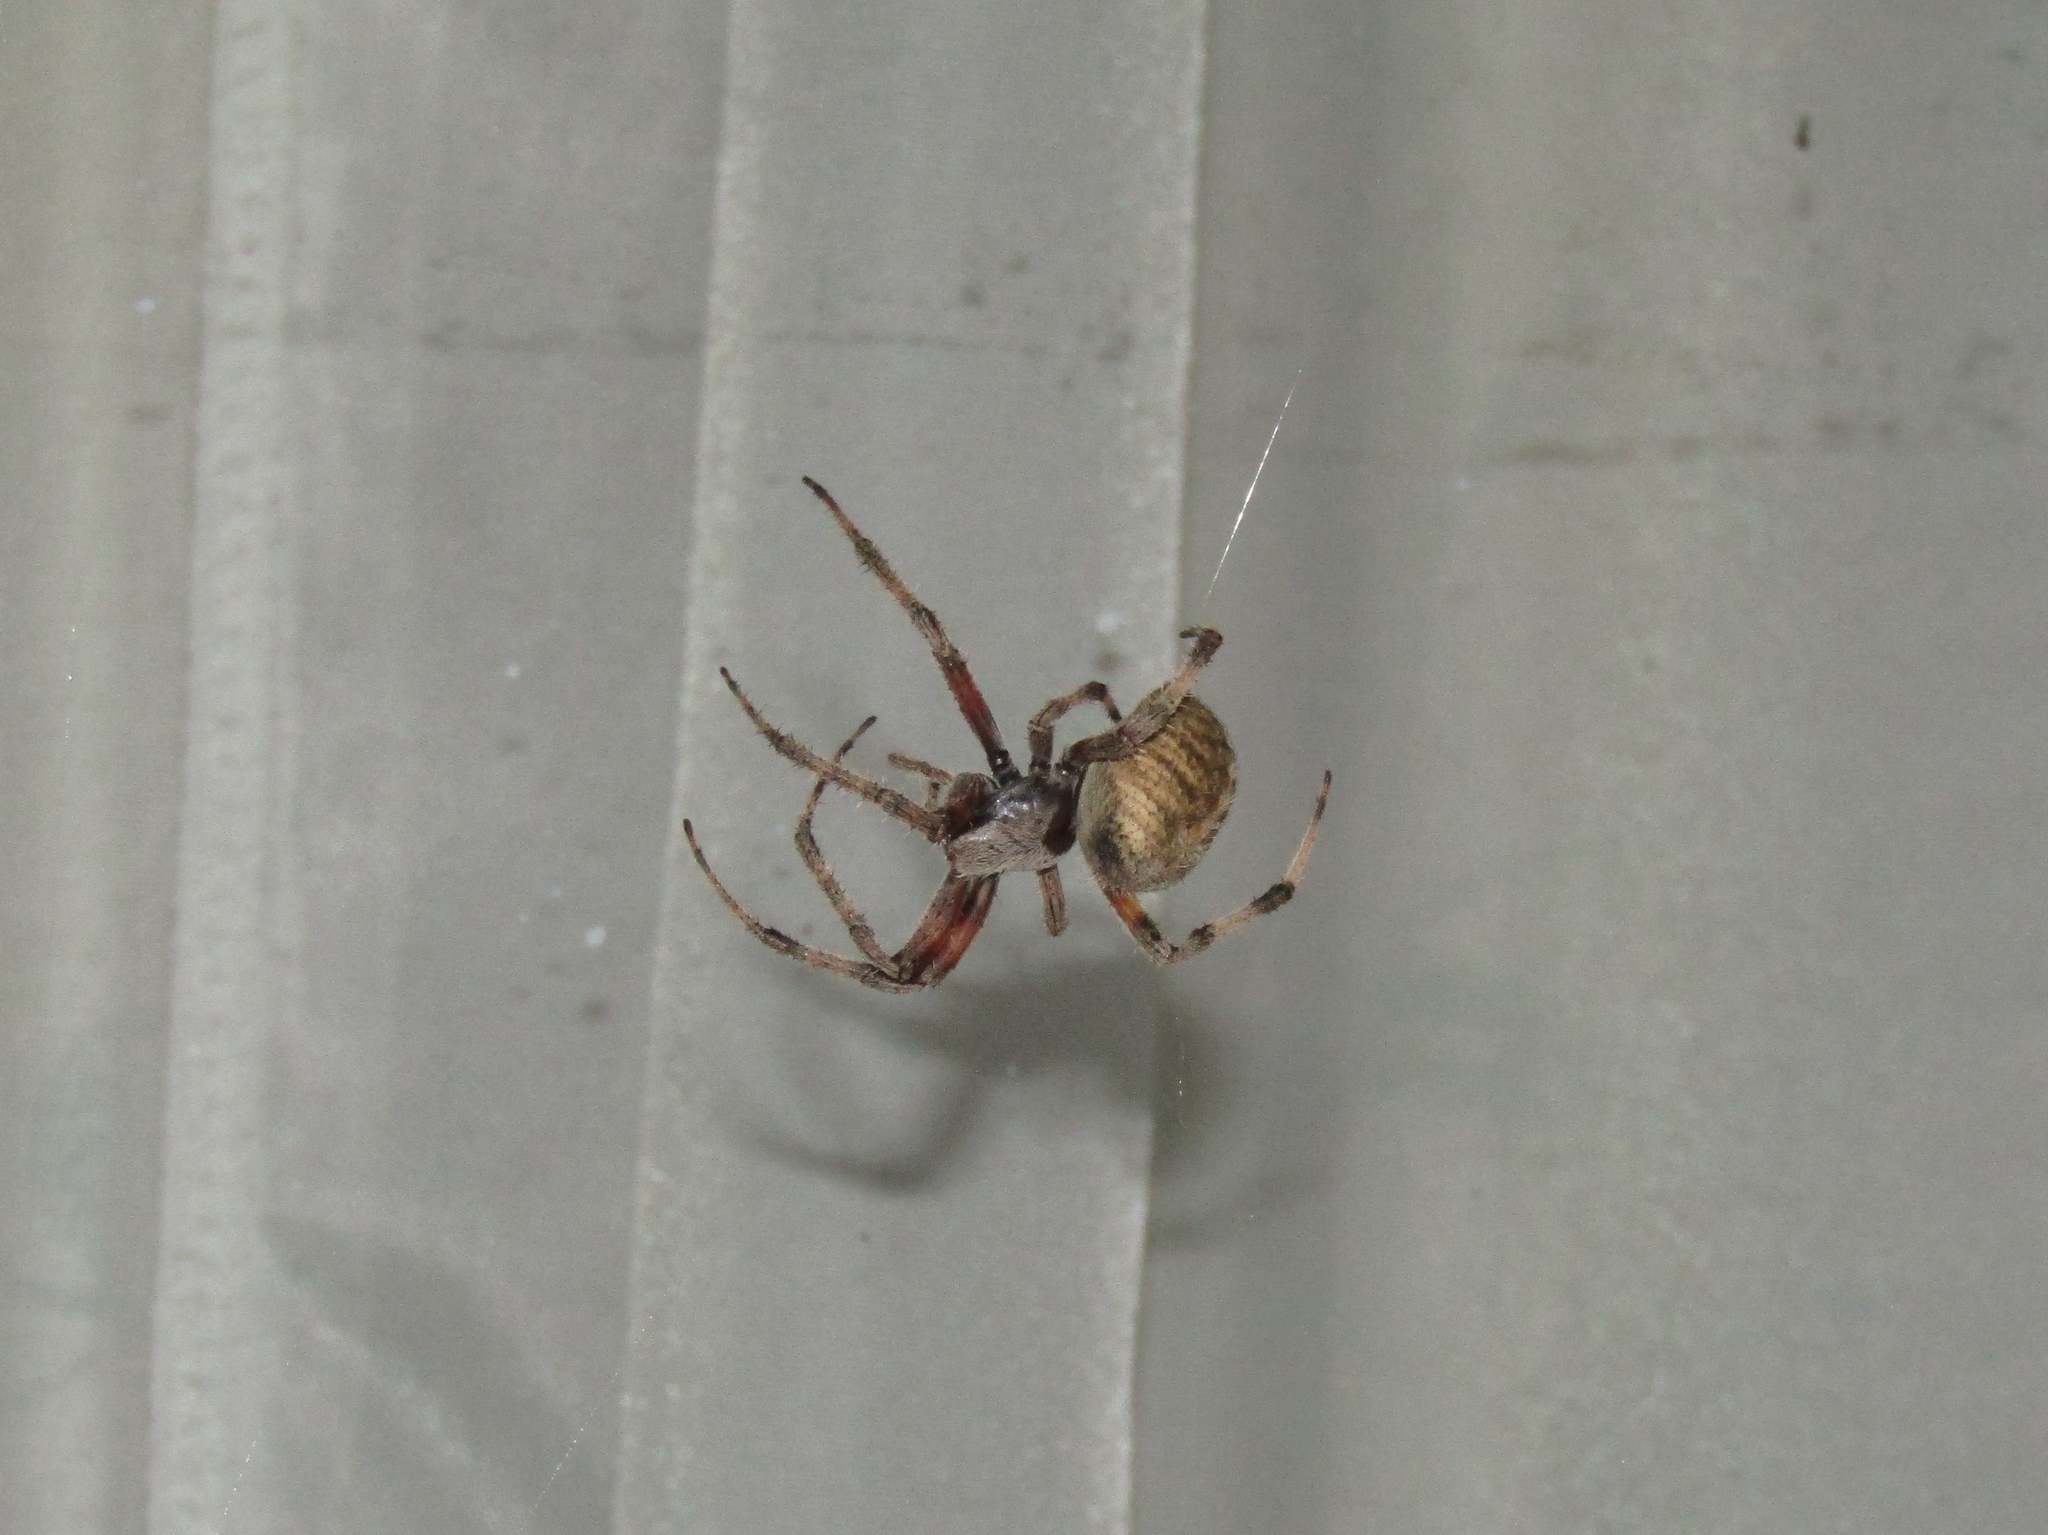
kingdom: Animalia
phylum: Arthropoda
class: Arachnida
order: Araneae
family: Araneidae
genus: Neoscona
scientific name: Neoscona crucifera
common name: Spotted orbweaver
